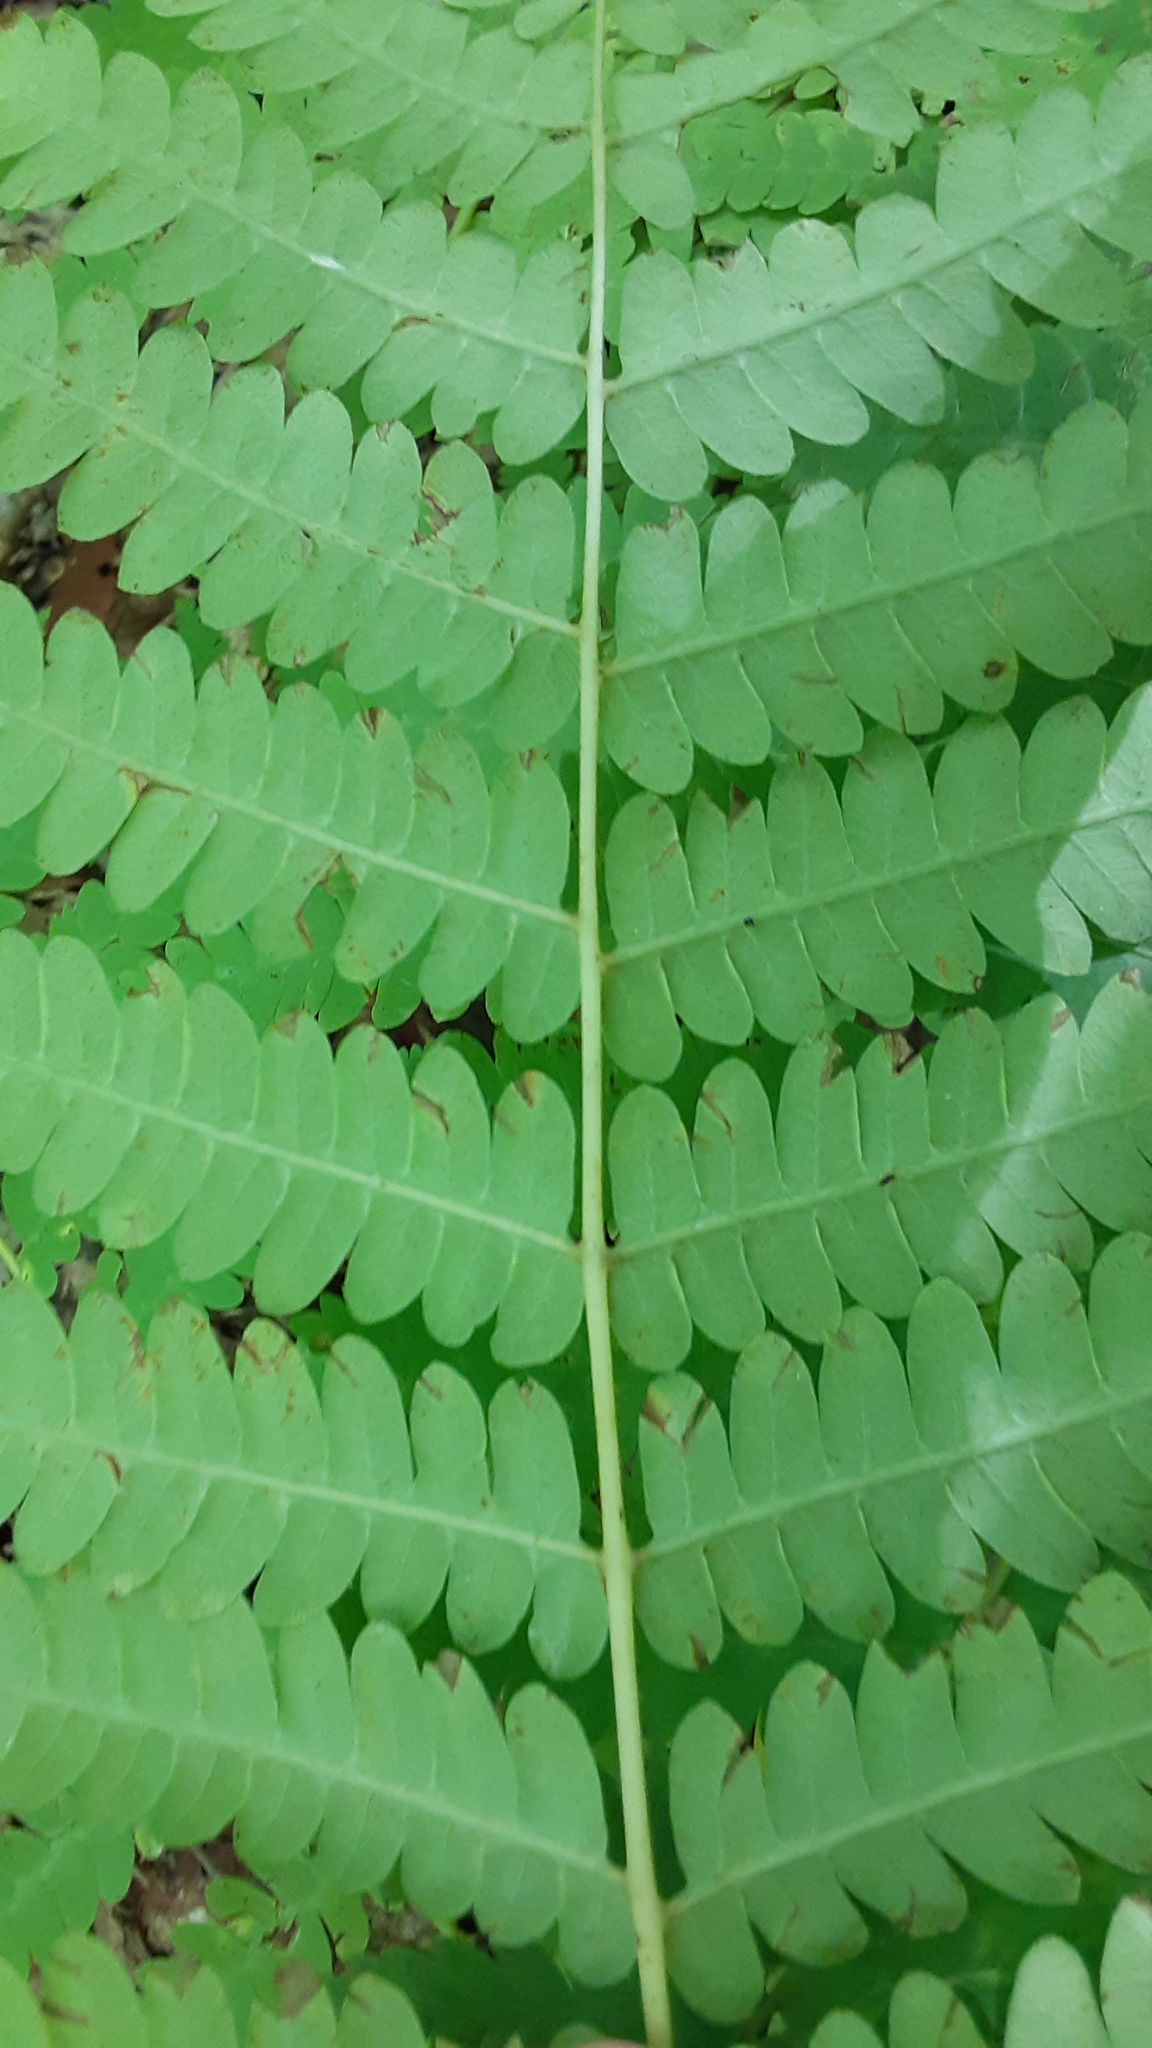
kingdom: Plantae
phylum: Tracheophyta
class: Polypodiopsida
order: Osmundales
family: Osmundaceae
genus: Claytosmunda
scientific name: Claytosmunda claytoniana
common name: Clayton's fern
